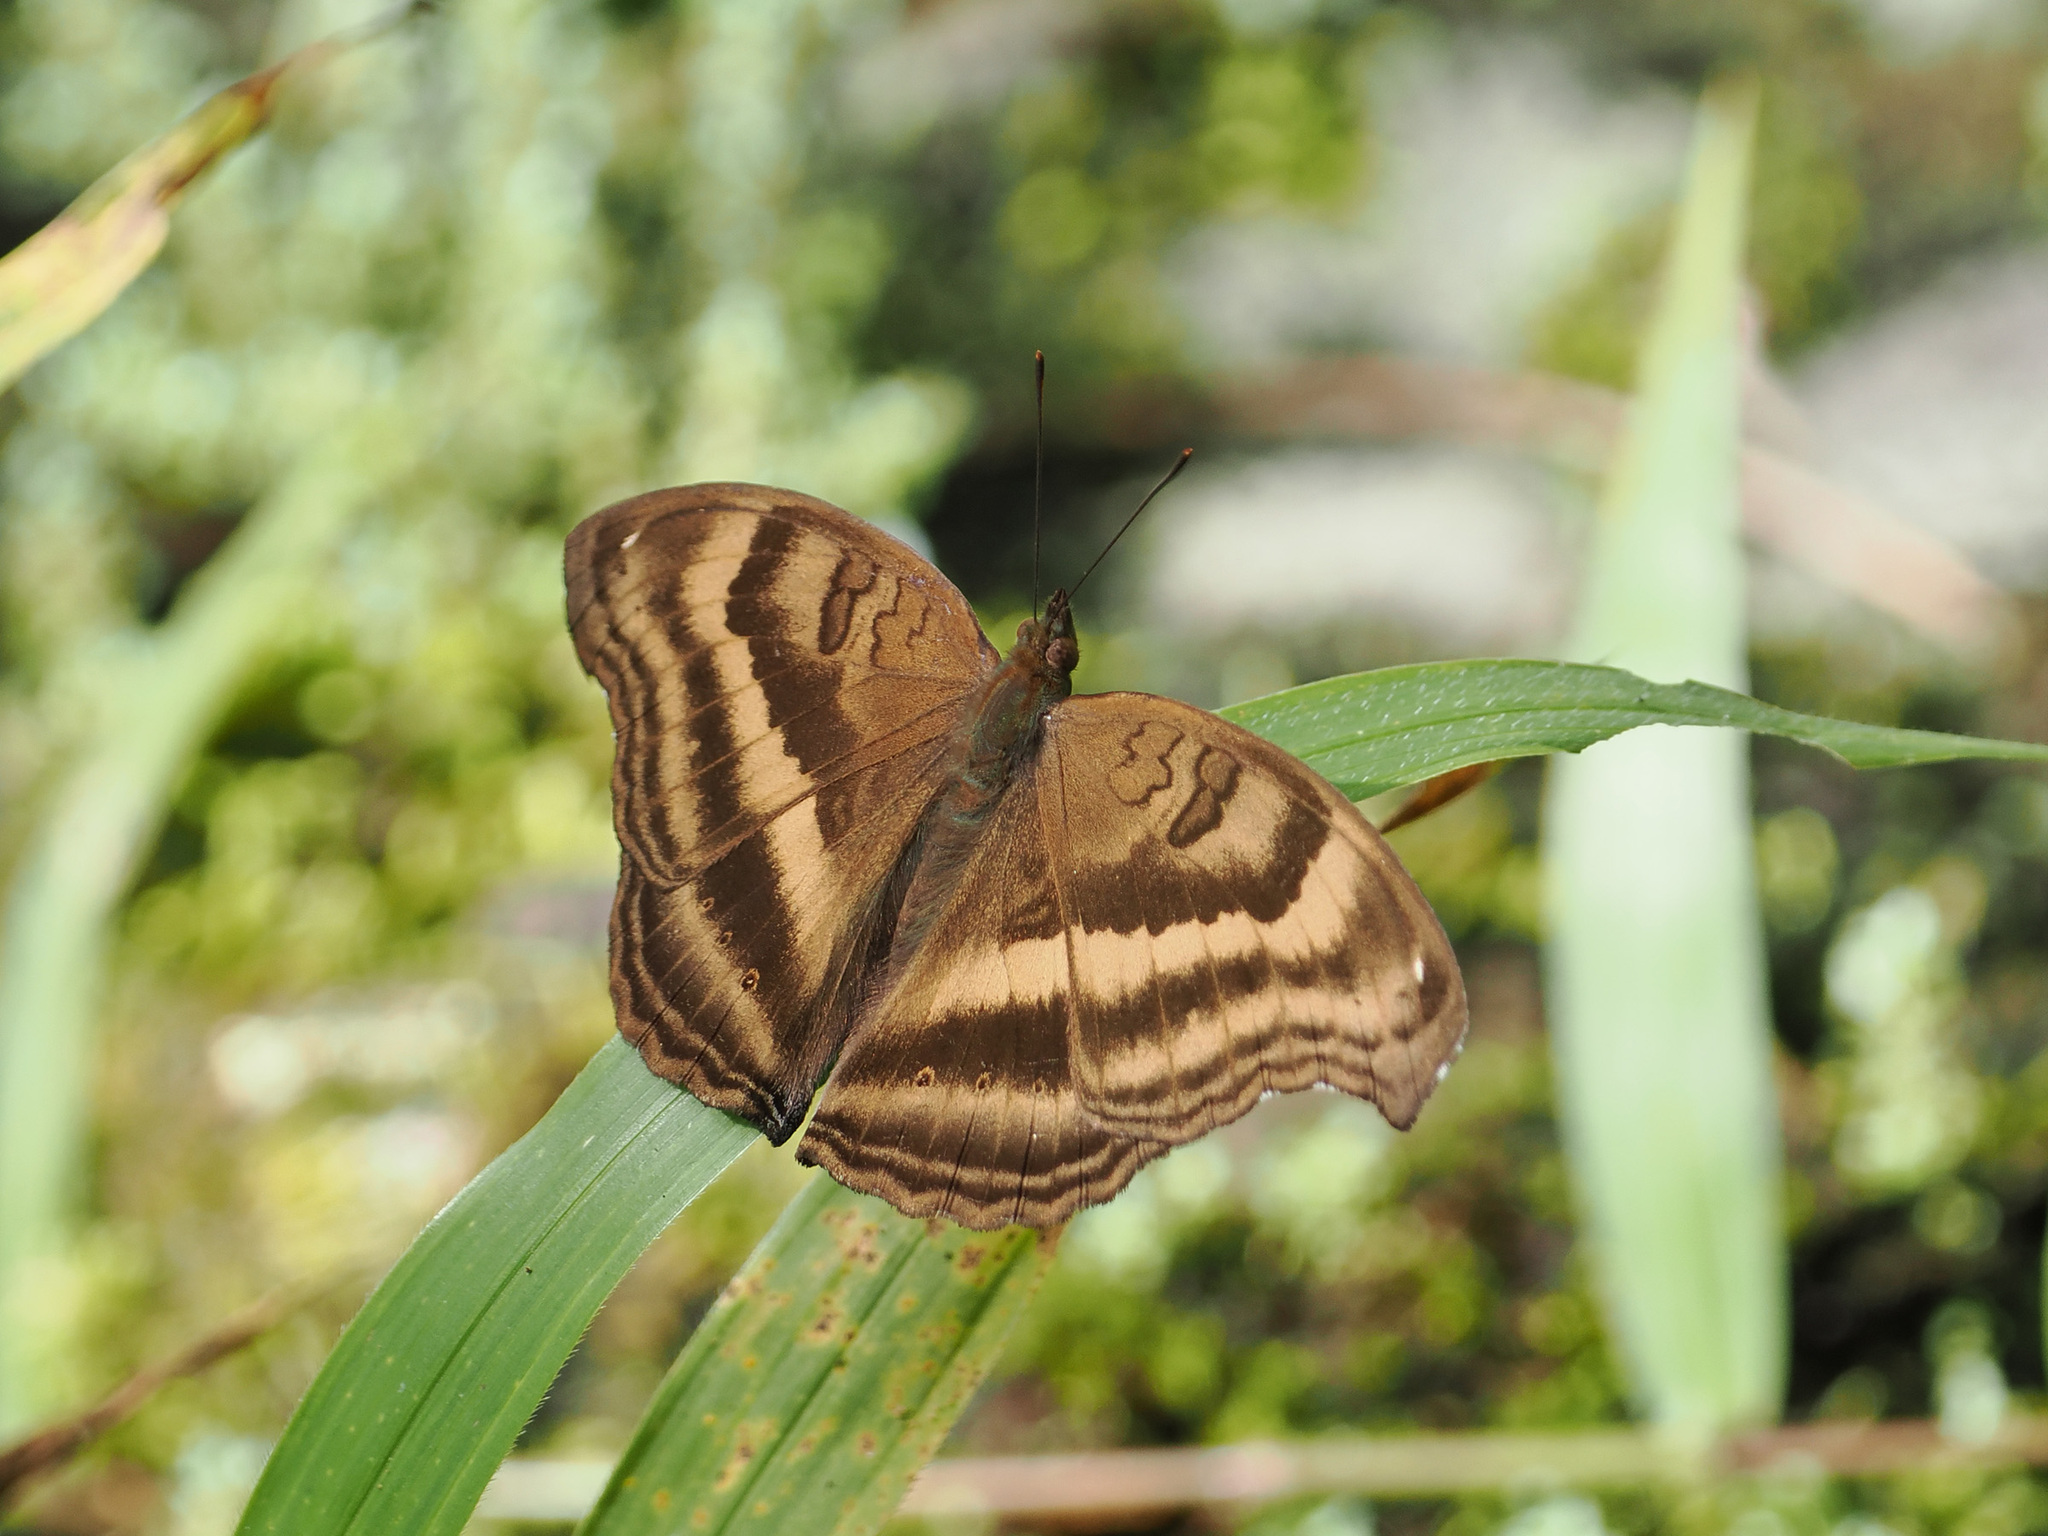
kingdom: Animalia
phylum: Arthropoda
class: Insecta
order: Lepidoptera
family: Nymphalidae
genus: Junonia
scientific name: Junonia iphita
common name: Chocolate pansy
